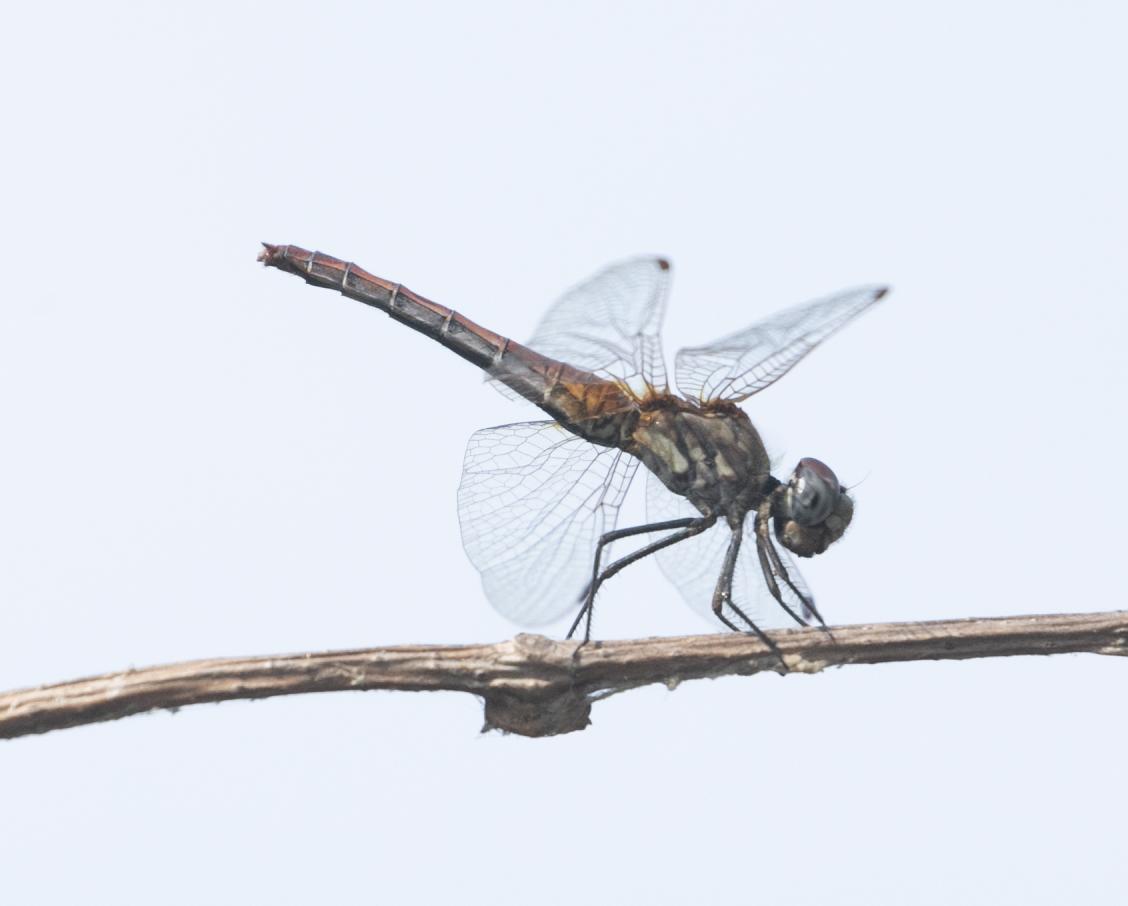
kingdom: Animalia
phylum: Arthropoda
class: Insecta
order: Odonata
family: Libellulidae
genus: Trithemis
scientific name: Trithemis annulata
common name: Violet dropwing
